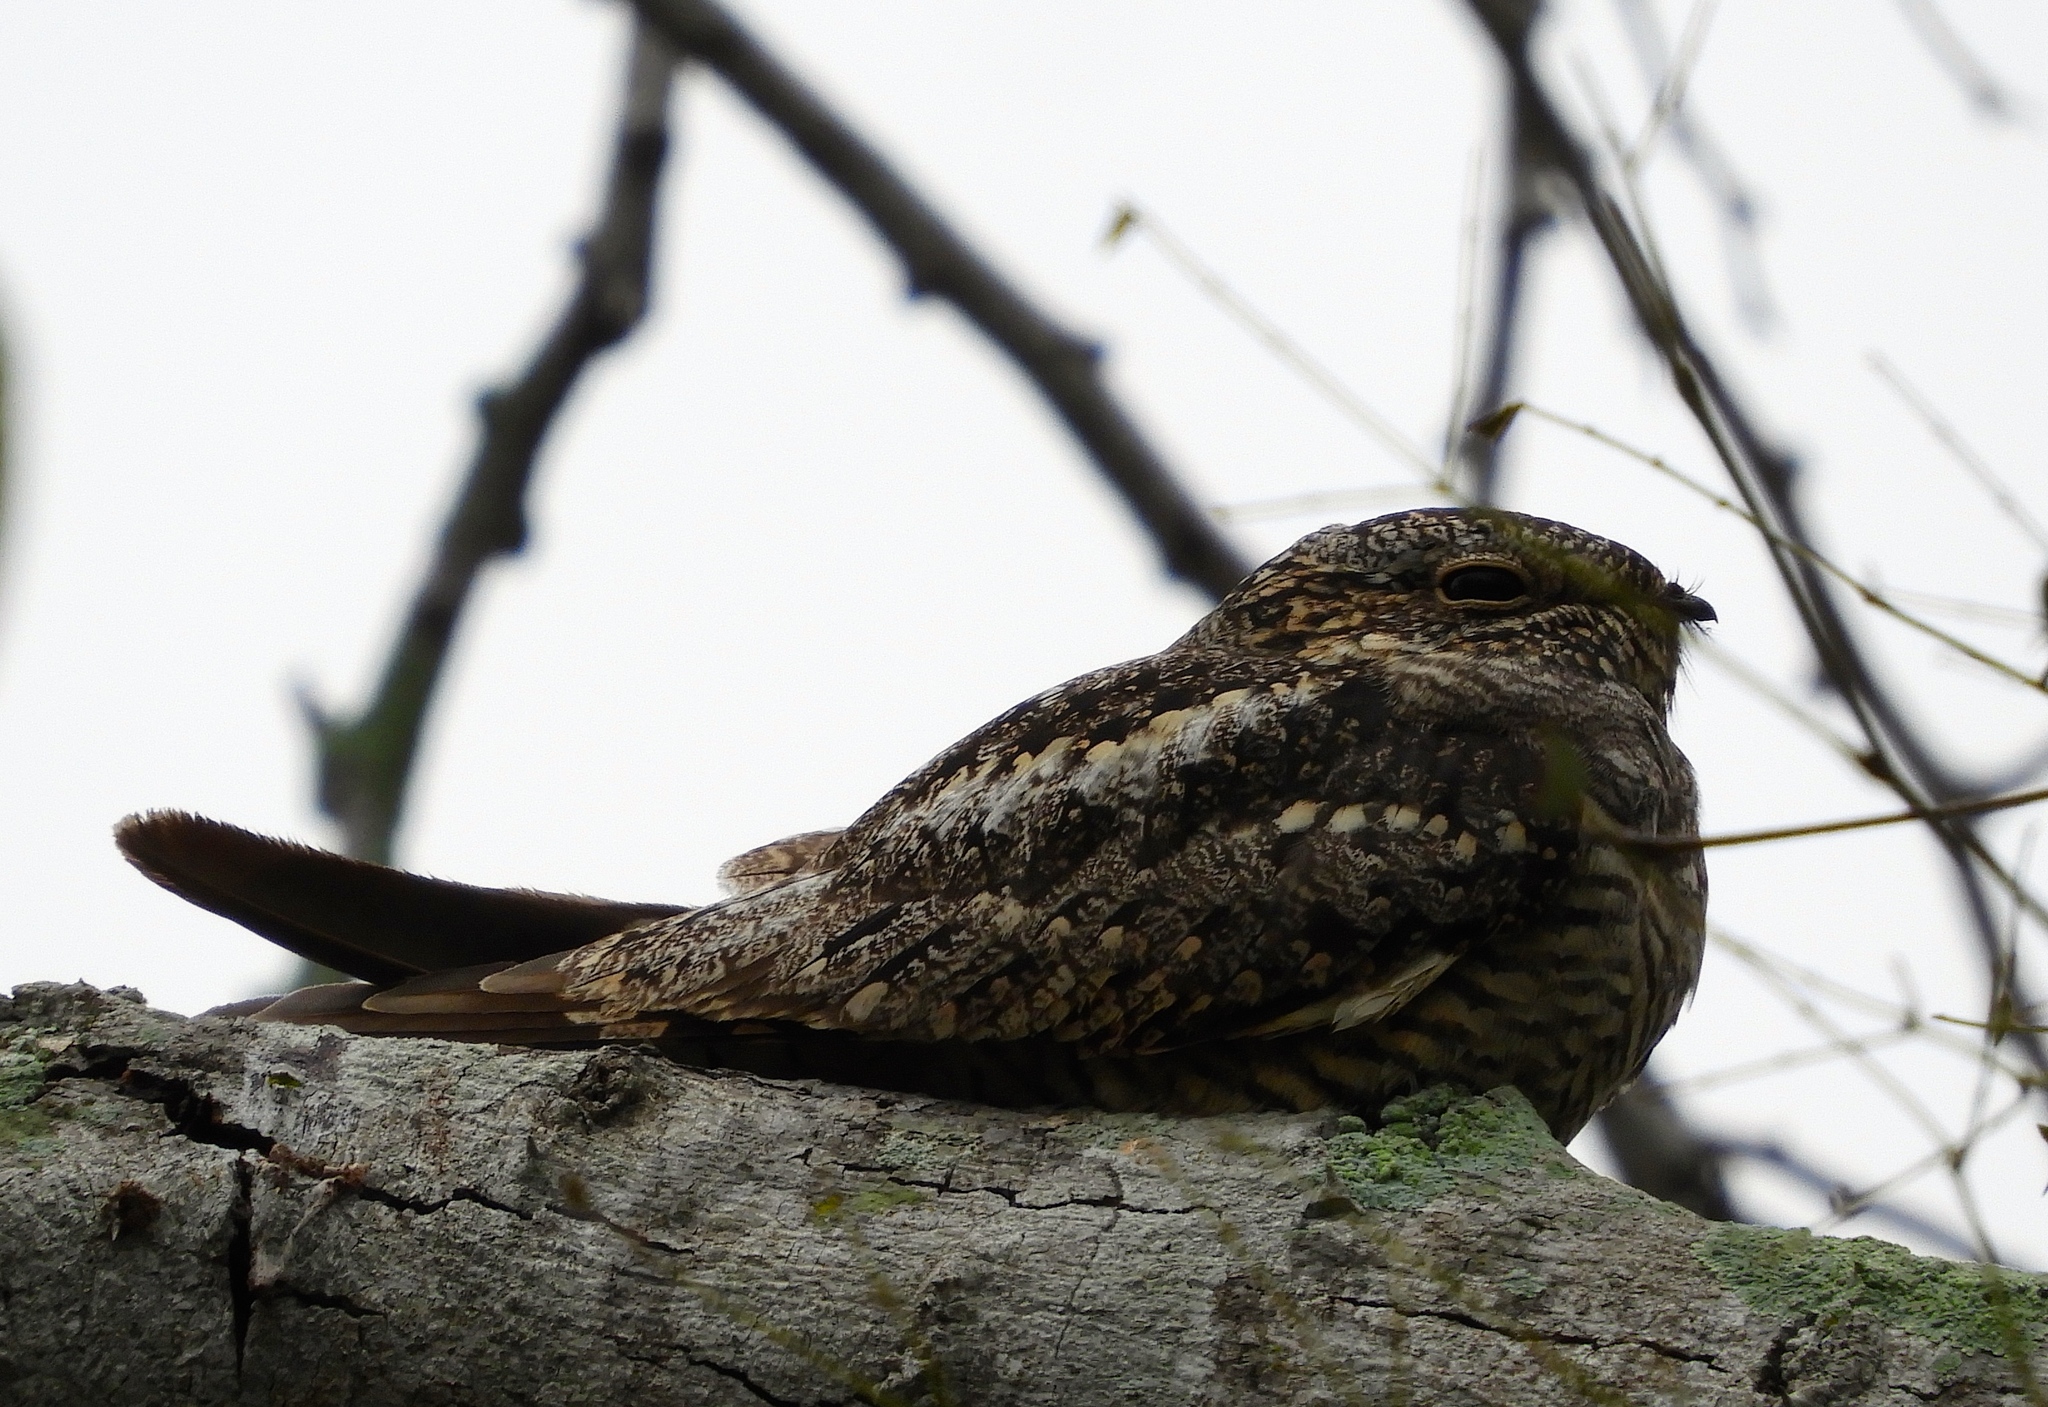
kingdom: Animalia
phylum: Chordata
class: Aves
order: Caprimulgiformes
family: Caprimulgidae
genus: Chordeiles
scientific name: Chordeiles acutipennis
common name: Lesser nighthawk
